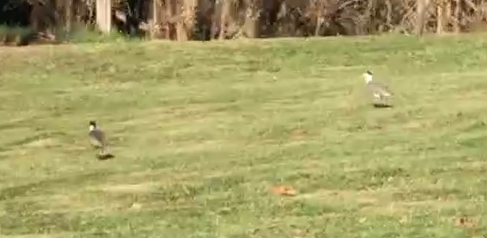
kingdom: Animalia
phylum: Chordata
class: Aves
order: Charadriiformes
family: Charadriidae
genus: Vanellus
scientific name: Vanellus miles
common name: Masked lapwing
